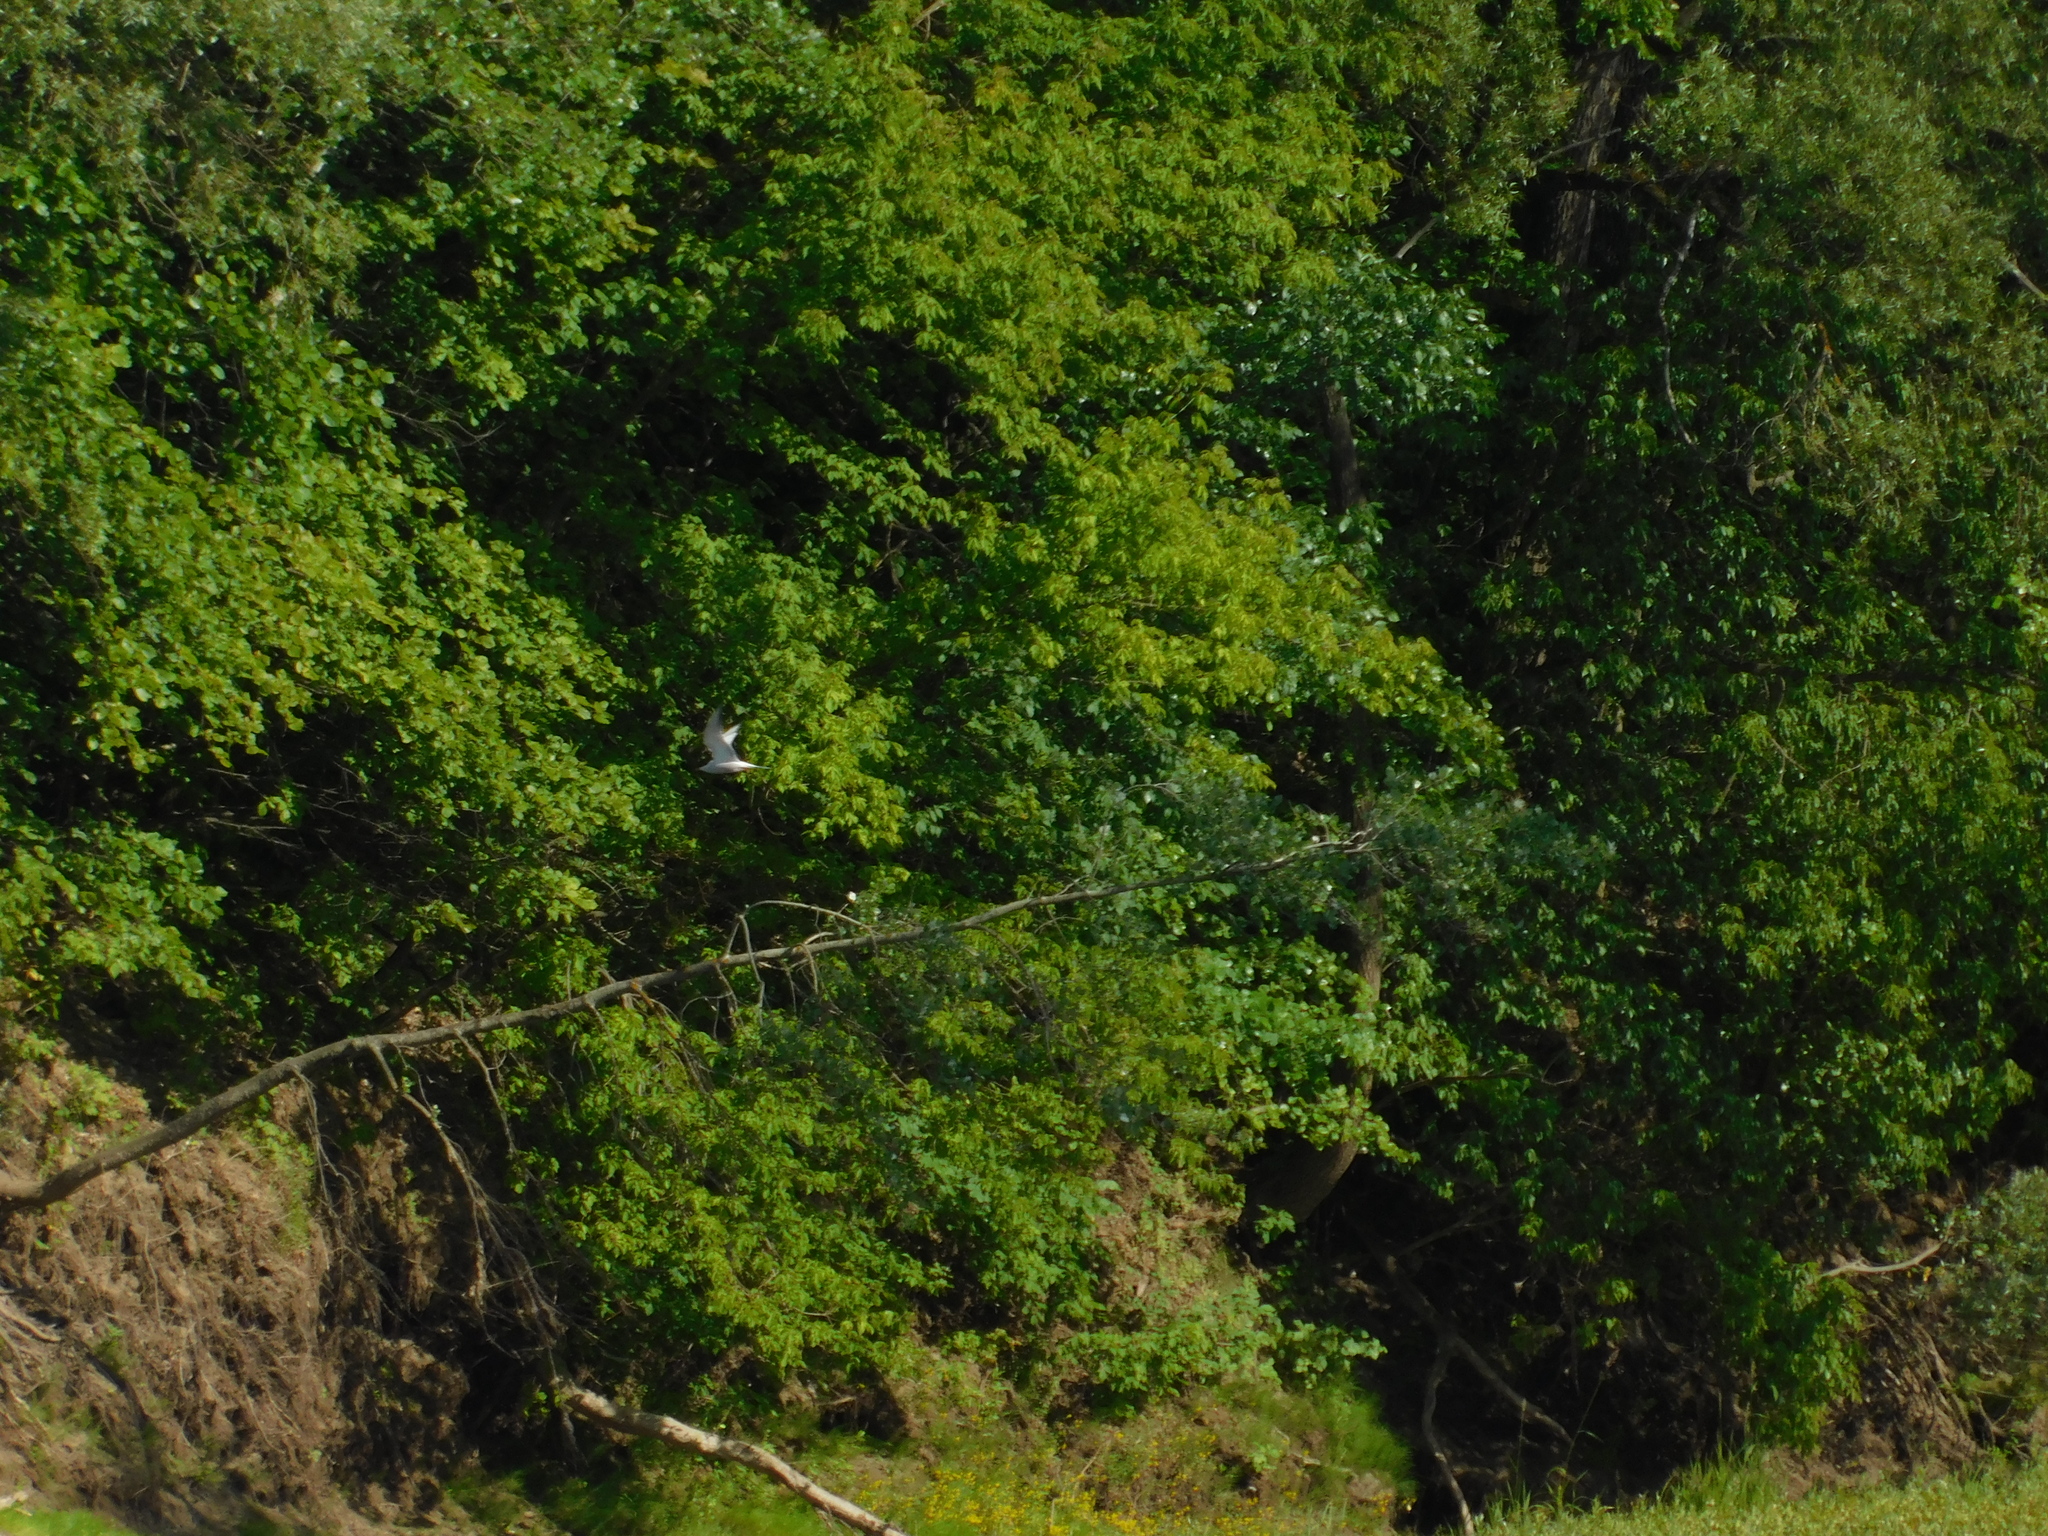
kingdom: Animalia
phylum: Chordata
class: Aves
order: Charadriiformes
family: Laridae
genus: Sterna
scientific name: Sterna hirundo
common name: Common tern
